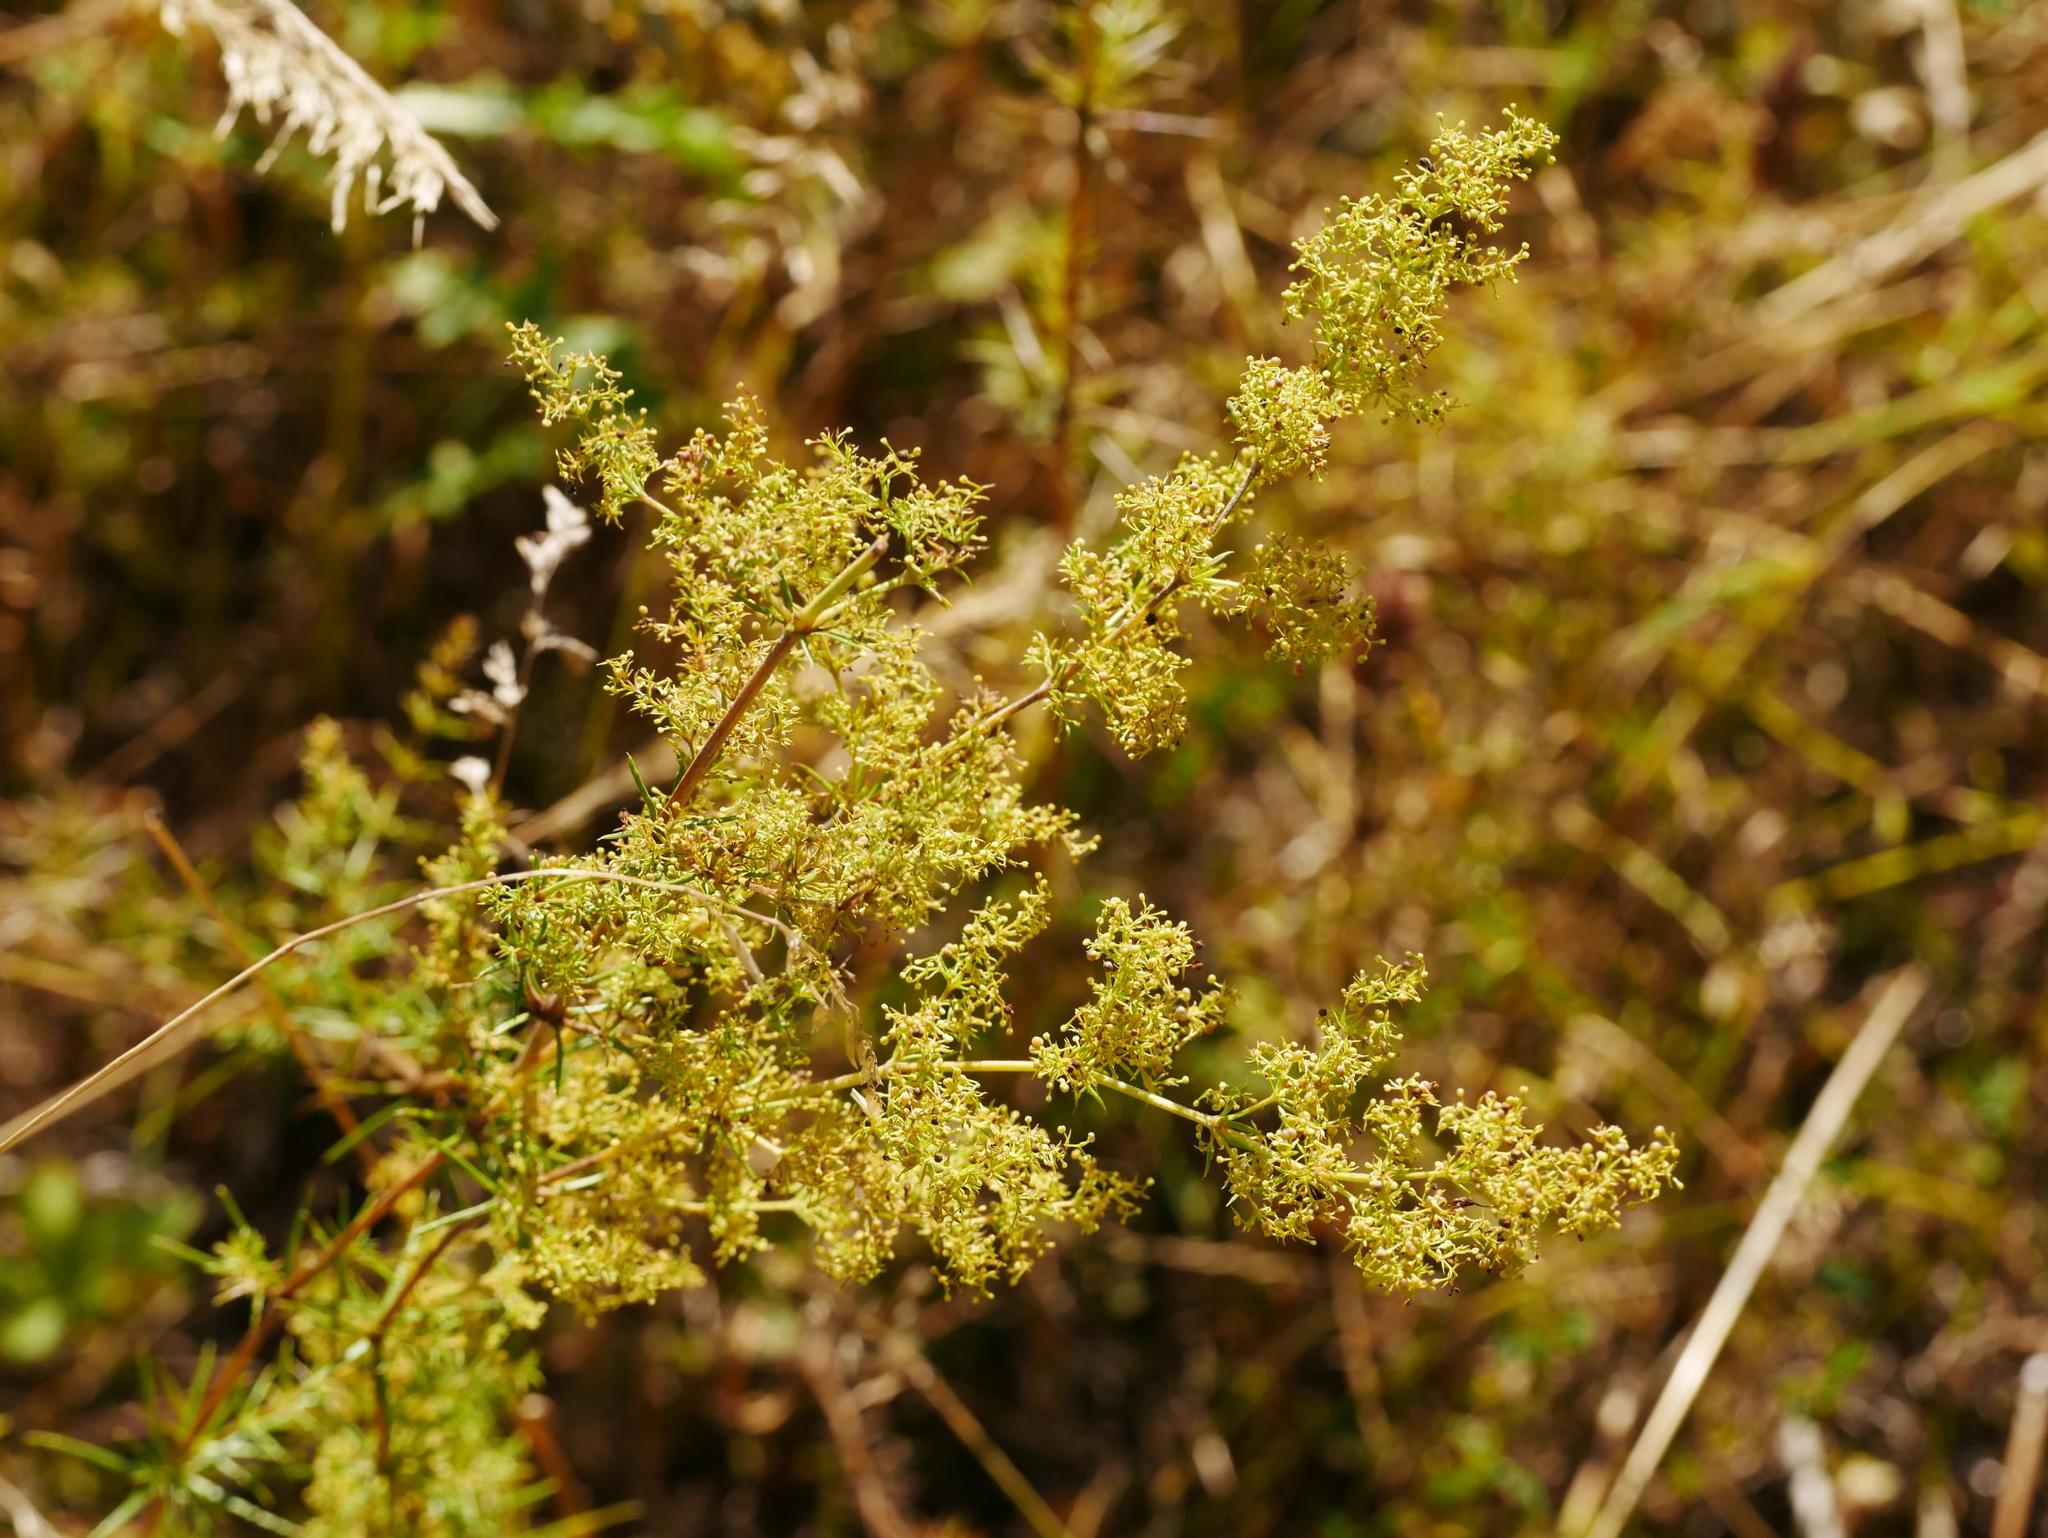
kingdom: Plantae
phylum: Tracheophyta
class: Magnoliopsida
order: Gentianales
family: Rubiaceae
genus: Galium
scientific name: Galium verum
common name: Lady's bedstraw
